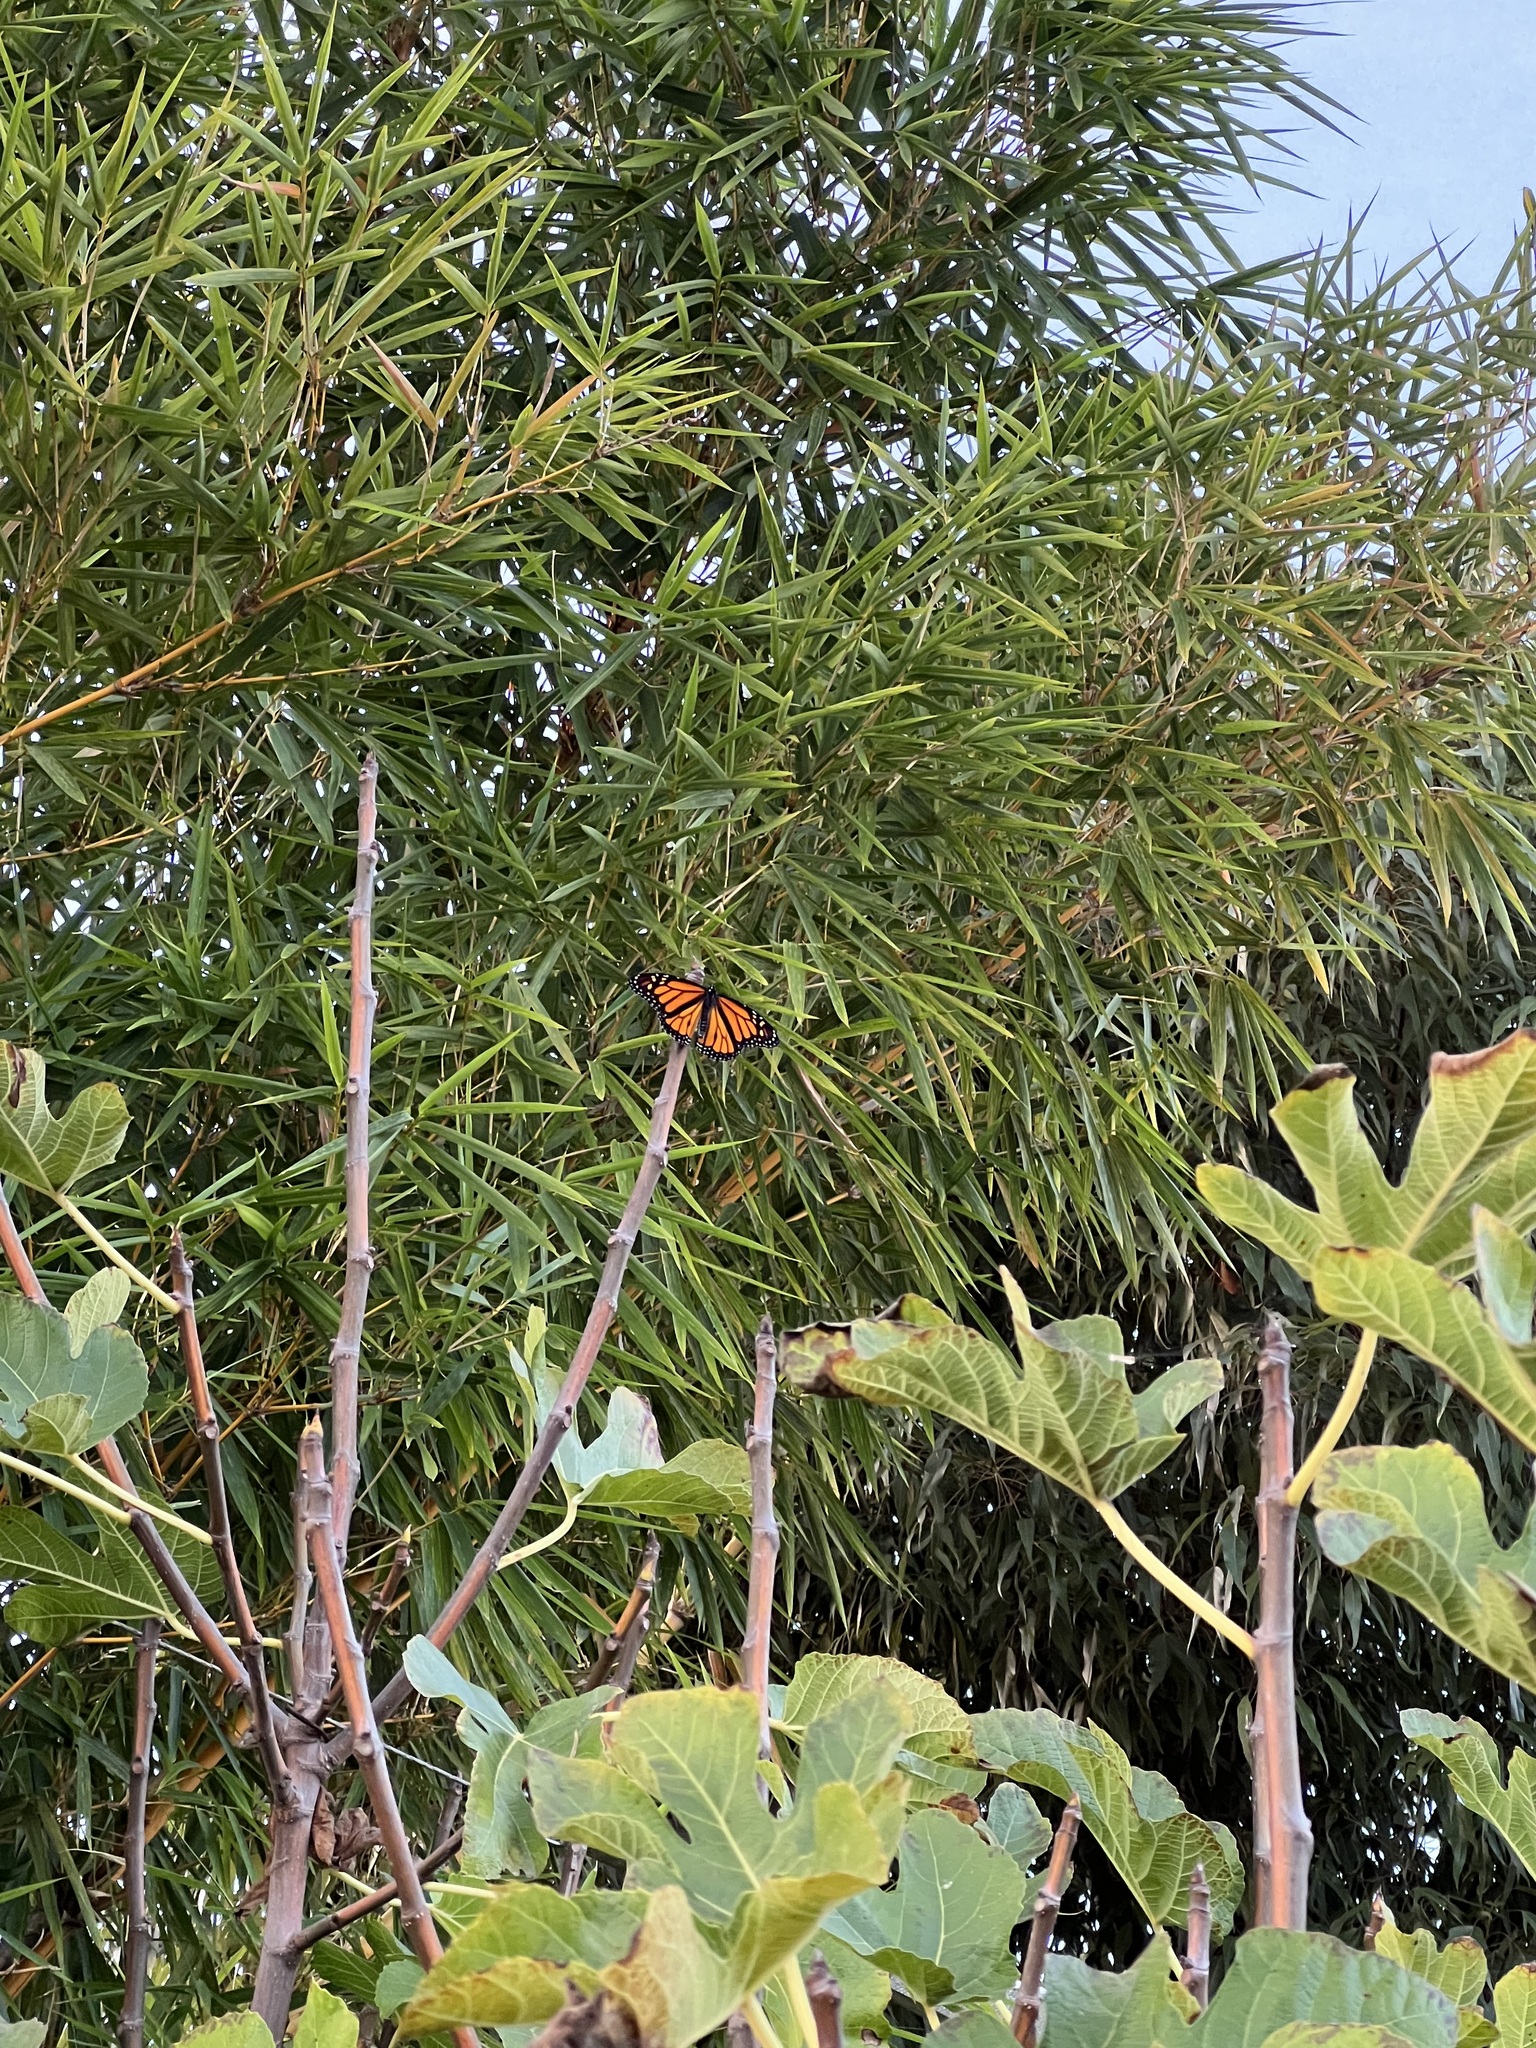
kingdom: Animalia
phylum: Arthropoda
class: Insecta
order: Lepidoptera
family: Nymphalidae
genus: Danaus
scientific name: Danaus plexippus
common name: Monarch
